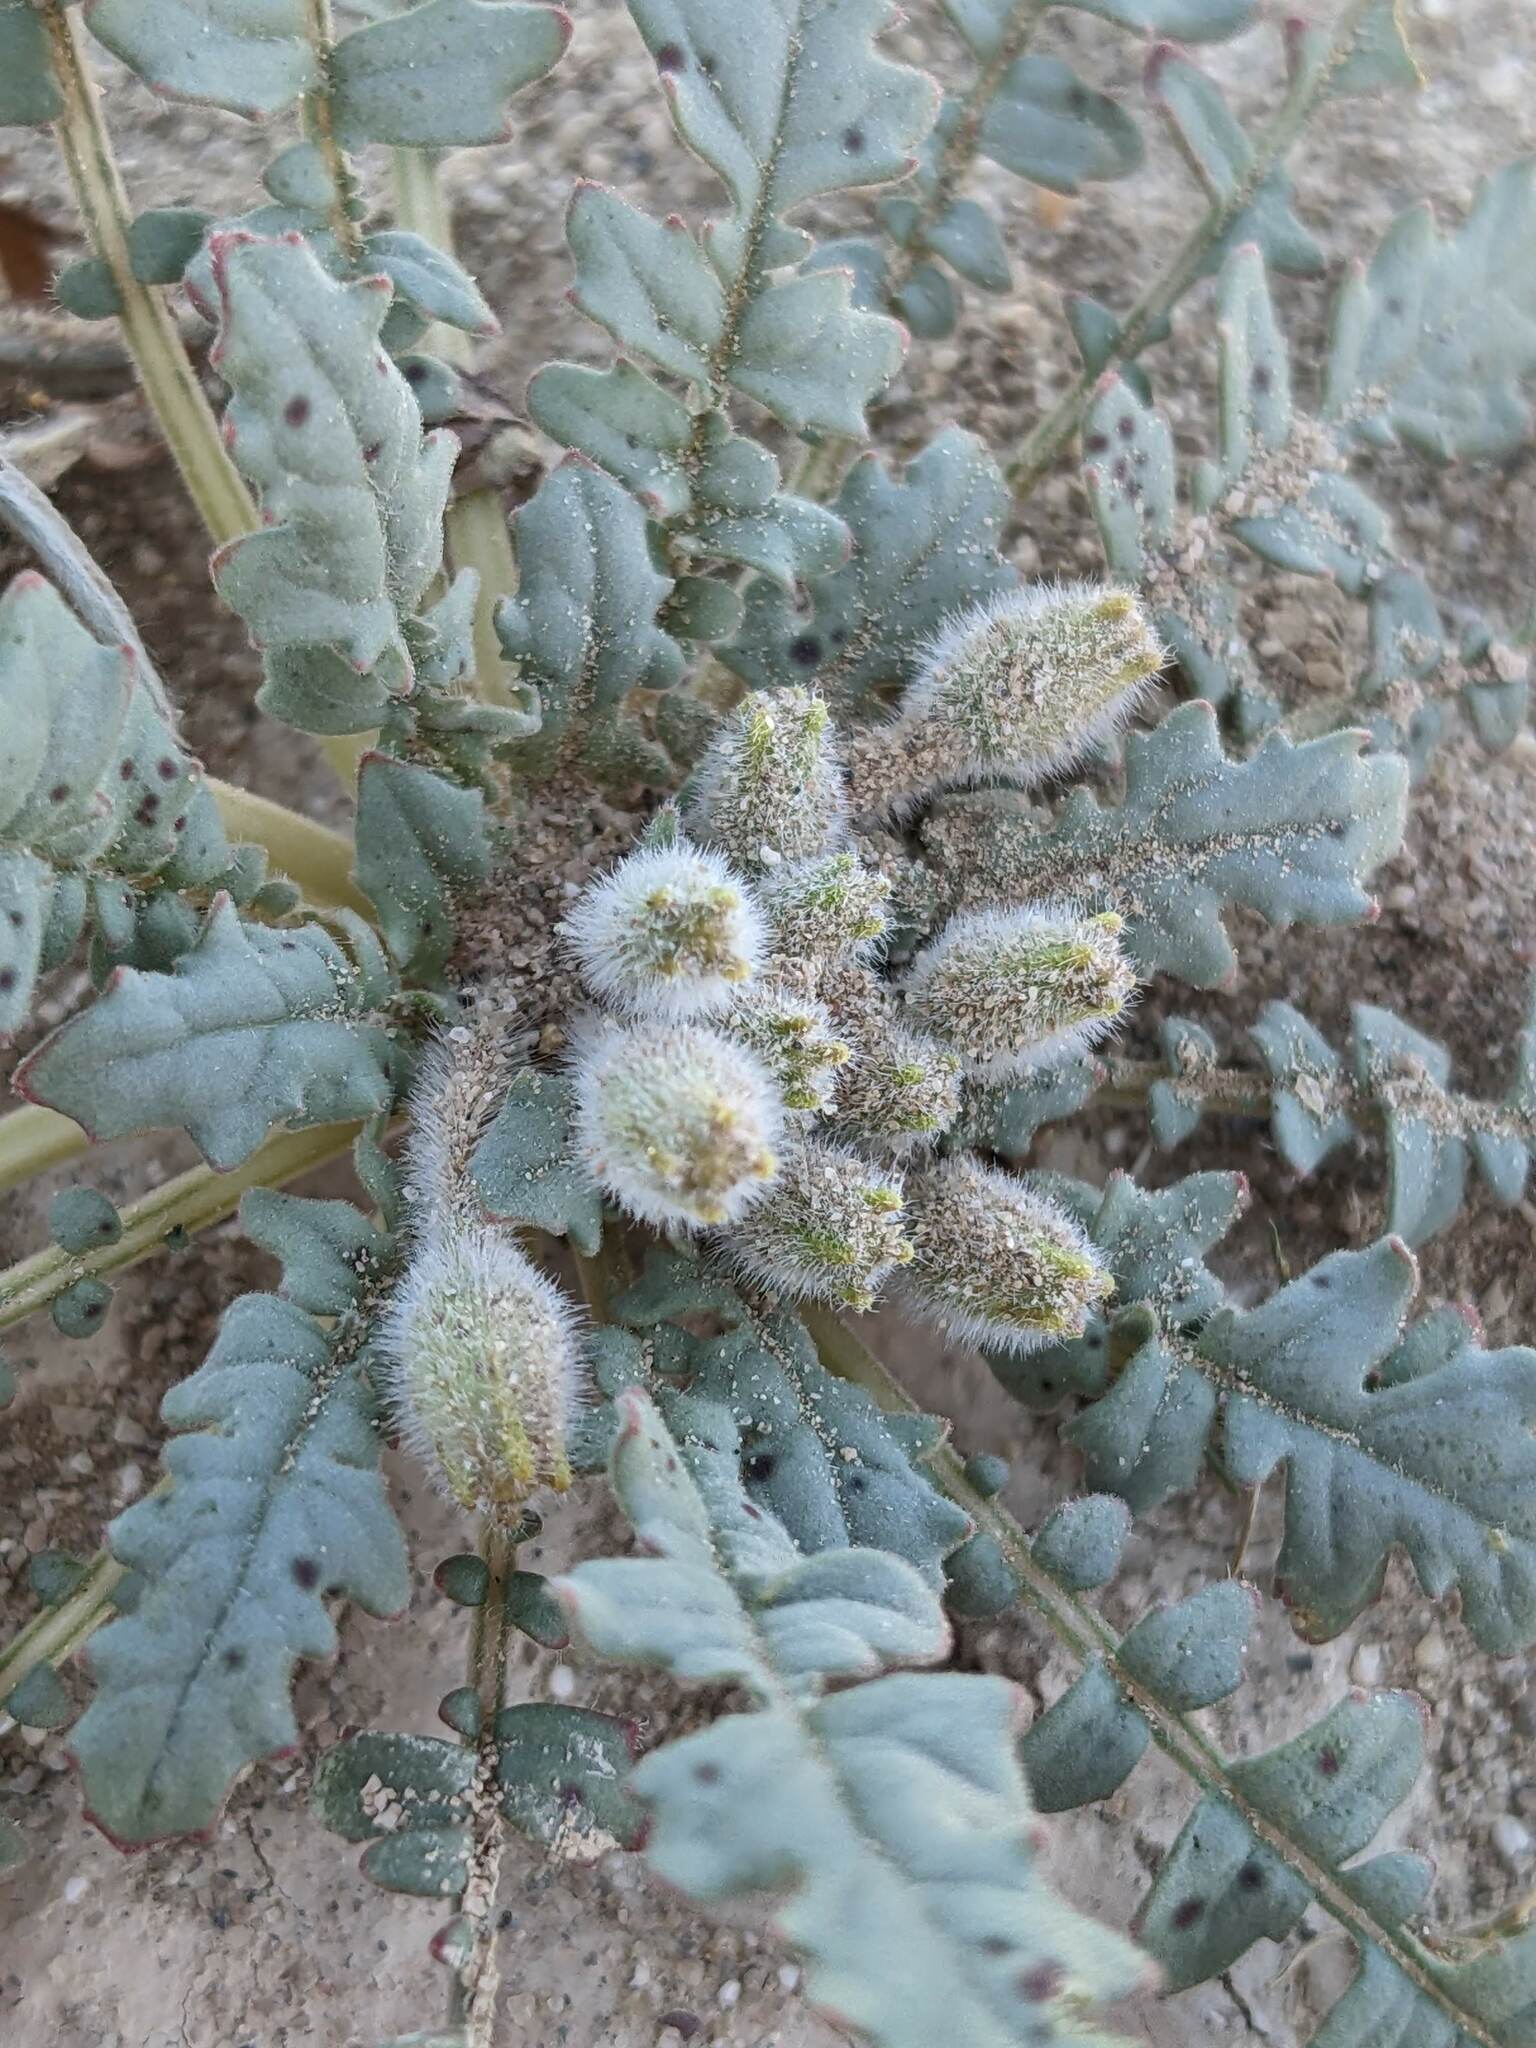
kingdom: Plantae
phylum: Tracheophyta
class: Magnoliopsida
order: Myrtales
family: Onagraceae
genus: Chylismia
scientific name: Chylismia claviformis
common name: Browneyes
